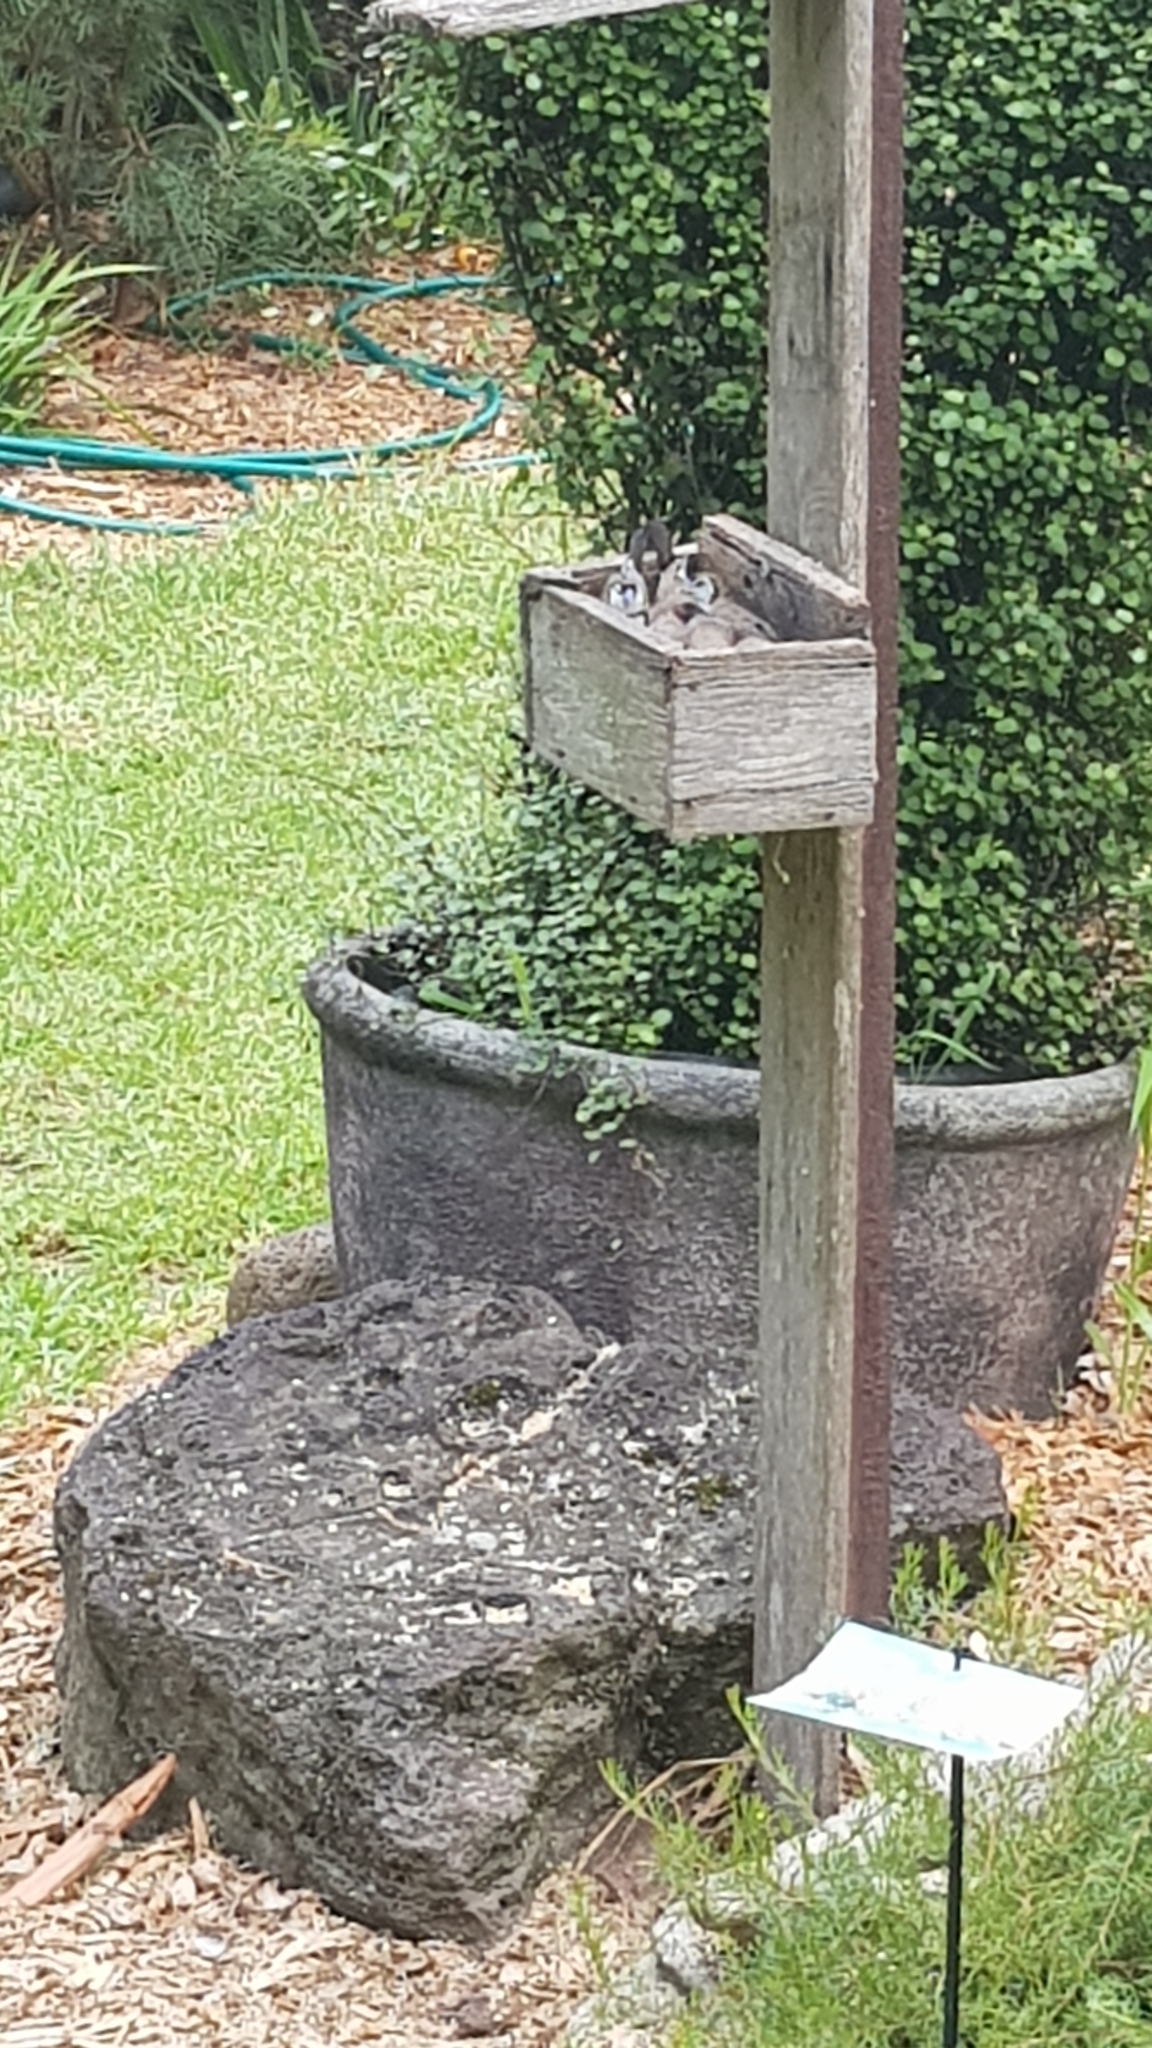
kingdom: Animalia
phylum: Chordata
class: Aves
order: Passeriformes
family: Estrildidae
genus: Taeniopygia
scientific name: Taeniopygia bichenovii
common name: Double-barred finch
